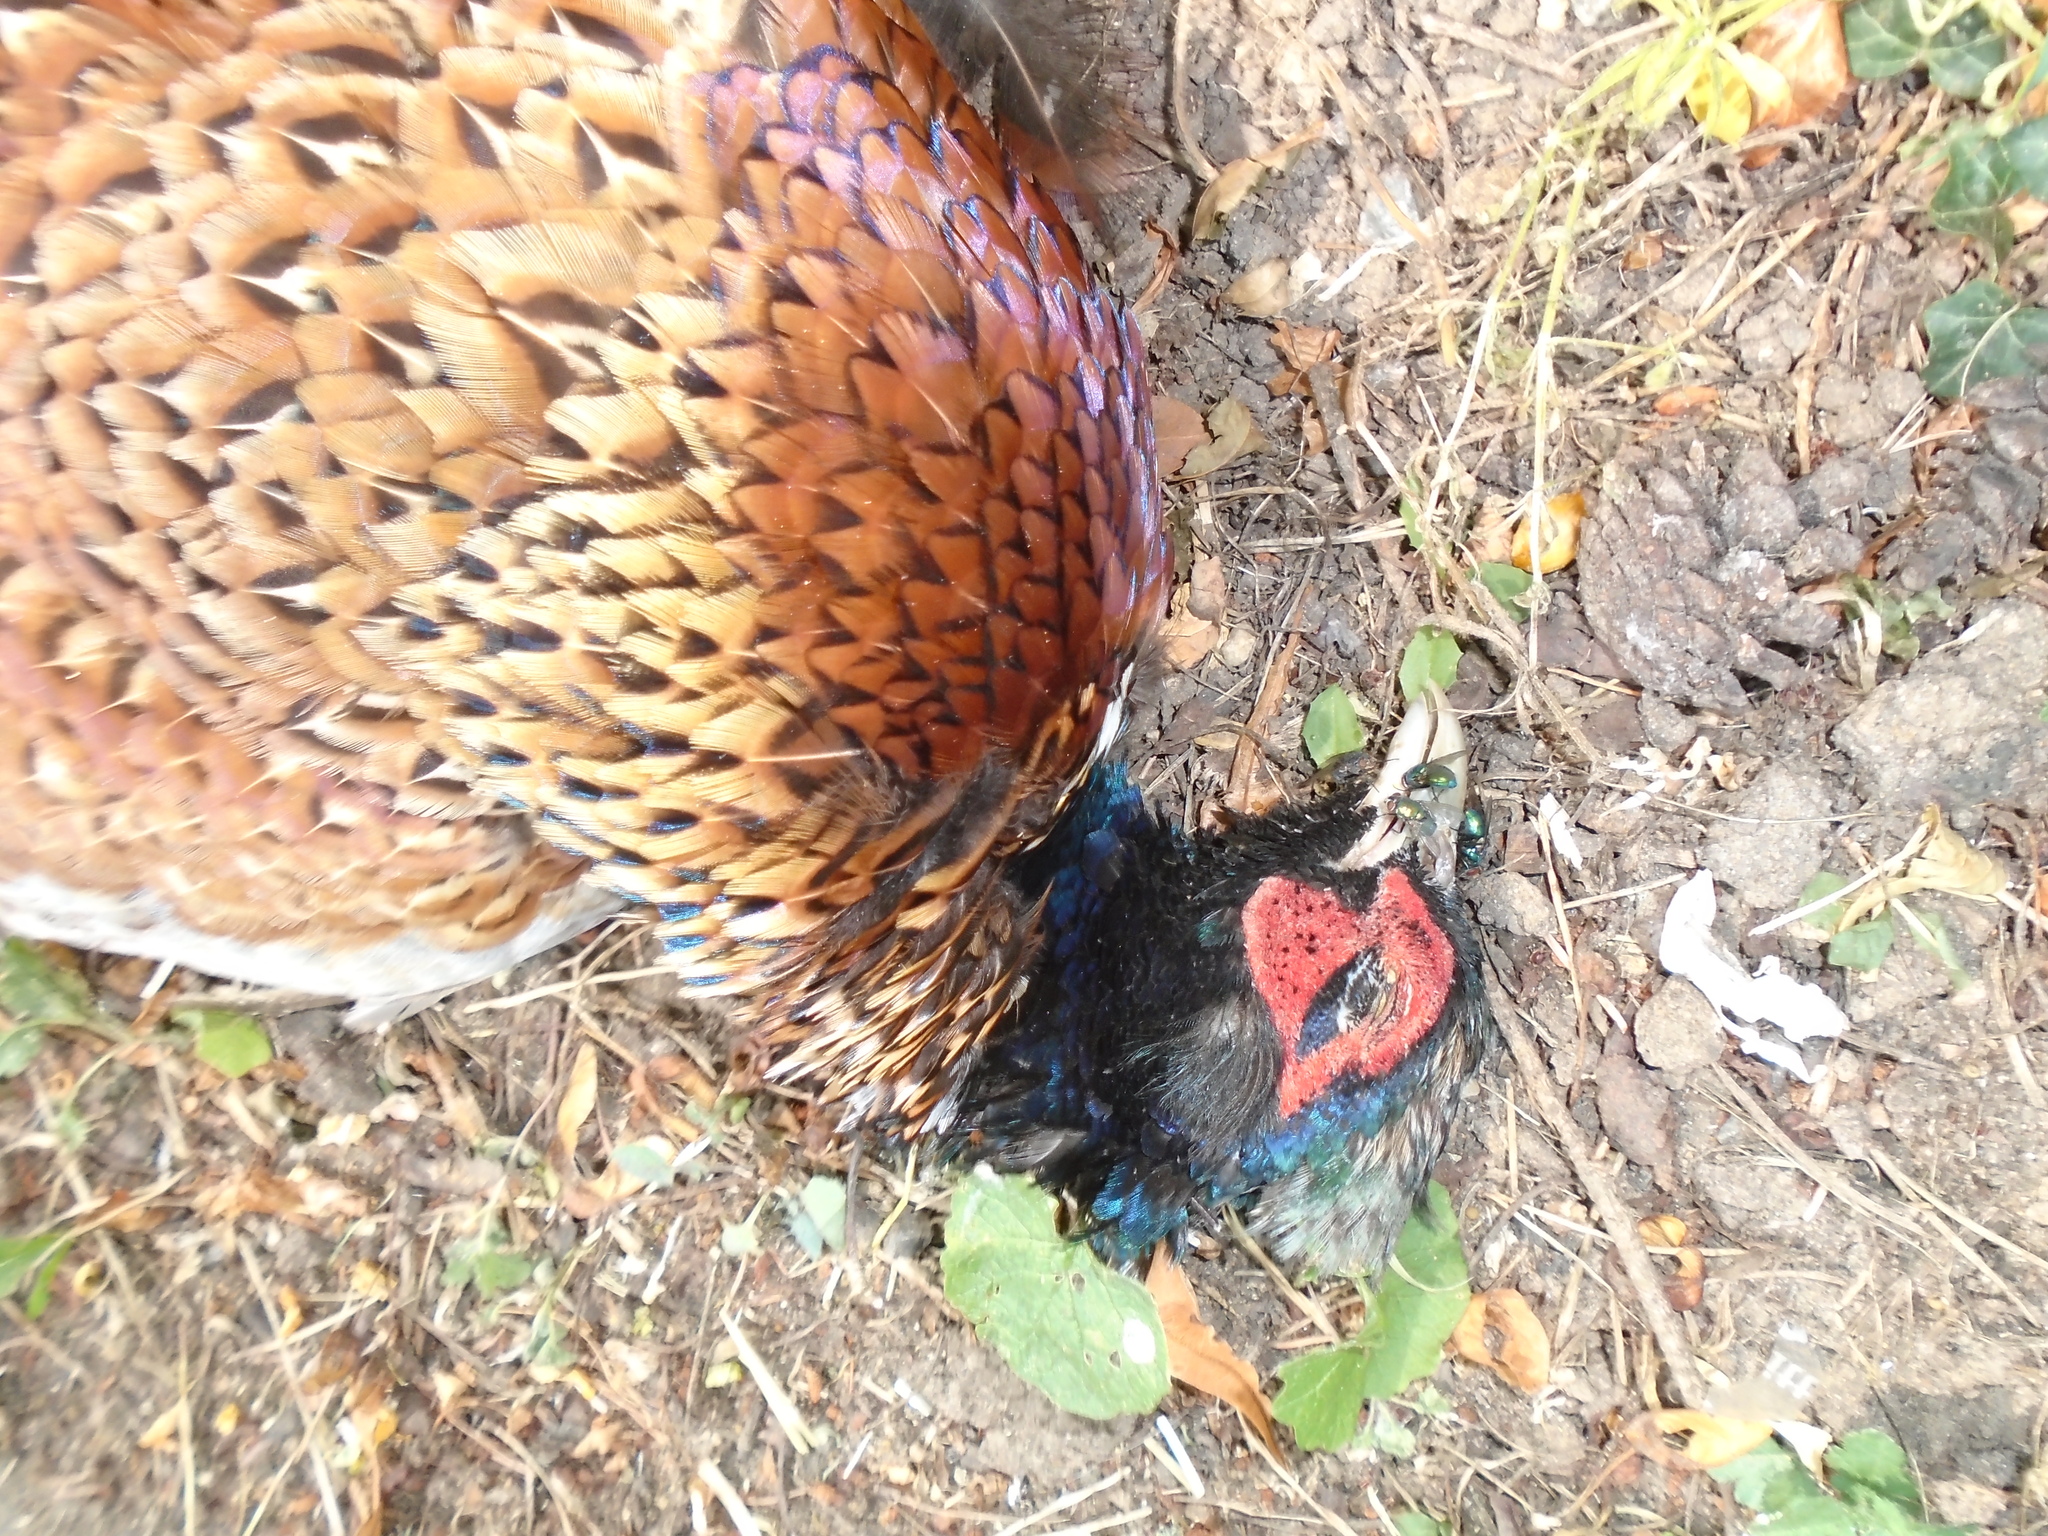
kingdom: Animalia
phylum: Chordata
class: Aves
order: Galliformes
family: Phasianidae
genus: Phasianus
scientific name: Phasianus colchicus
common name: Common pheasant
